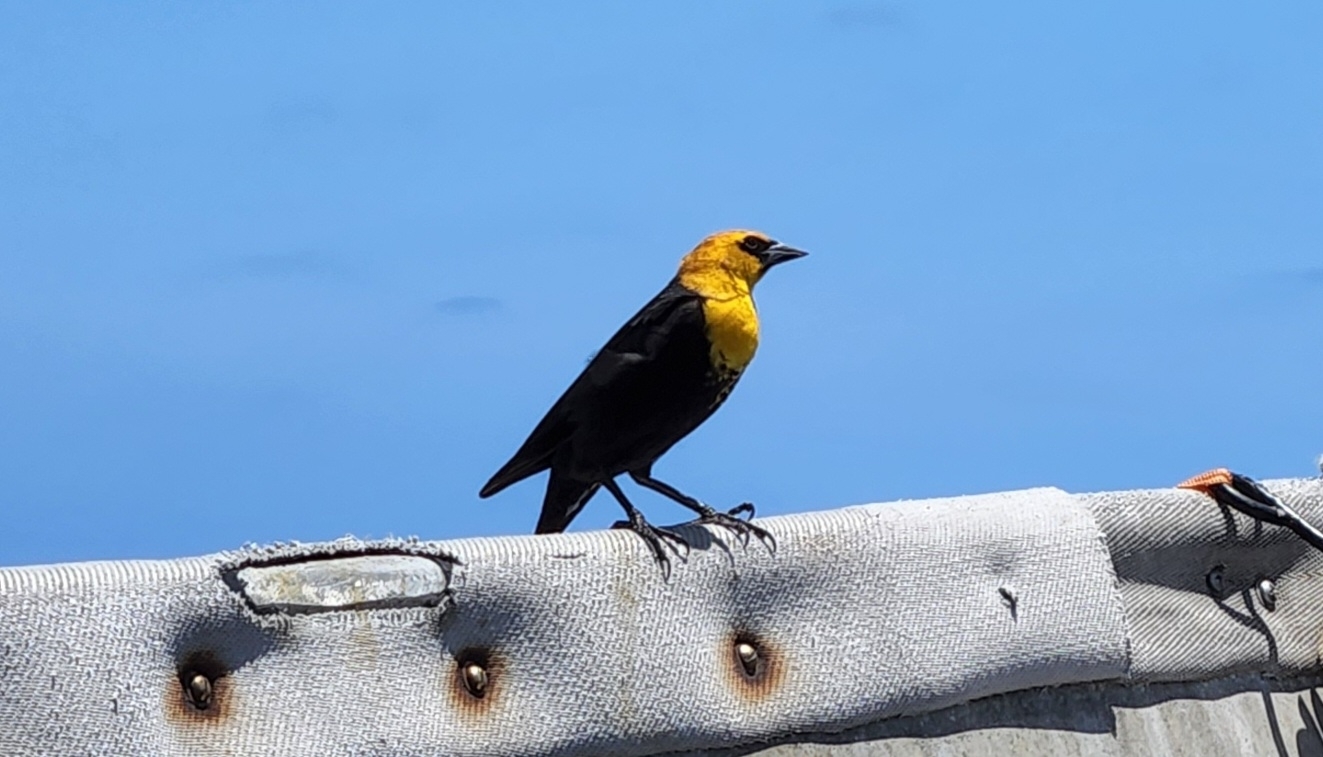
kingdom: Animalia
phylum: Chordata
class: Aves
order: Passeriformes
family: Icteridae
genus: Xanthocephalus
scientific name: Xanthocephalus xanthocephalus
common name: Yellow-headed blackbird
